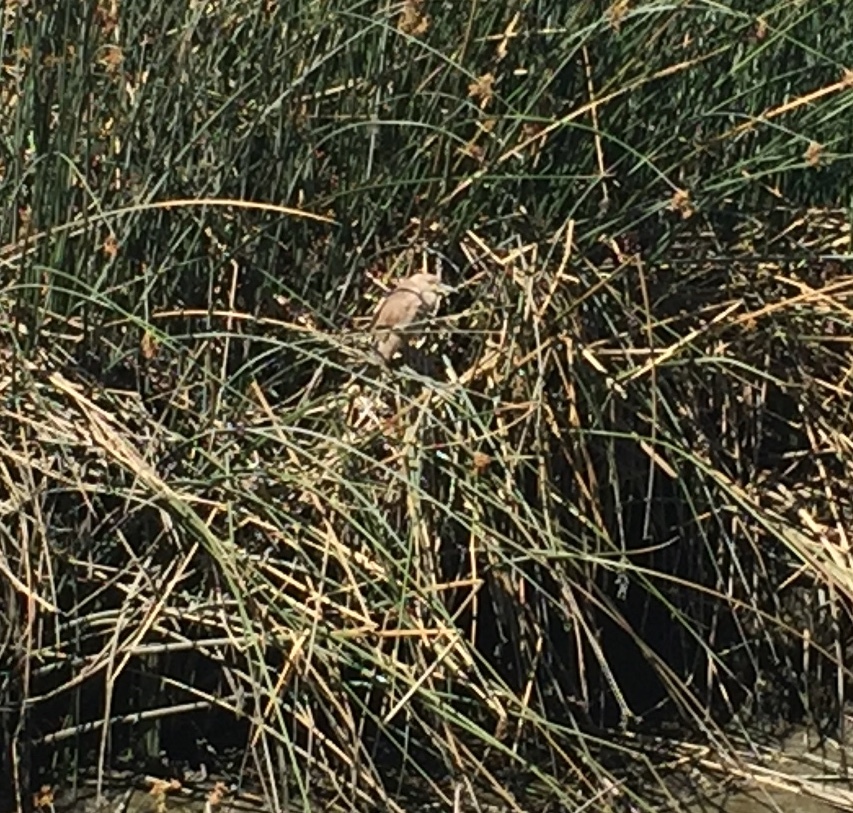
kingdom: Animalia
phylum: Chordata
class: Aves
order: Pelecaniformes
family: Ardeidae
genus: Nycticorax
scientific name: Nycticorax nycticorax
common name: Black-crowned night heron
